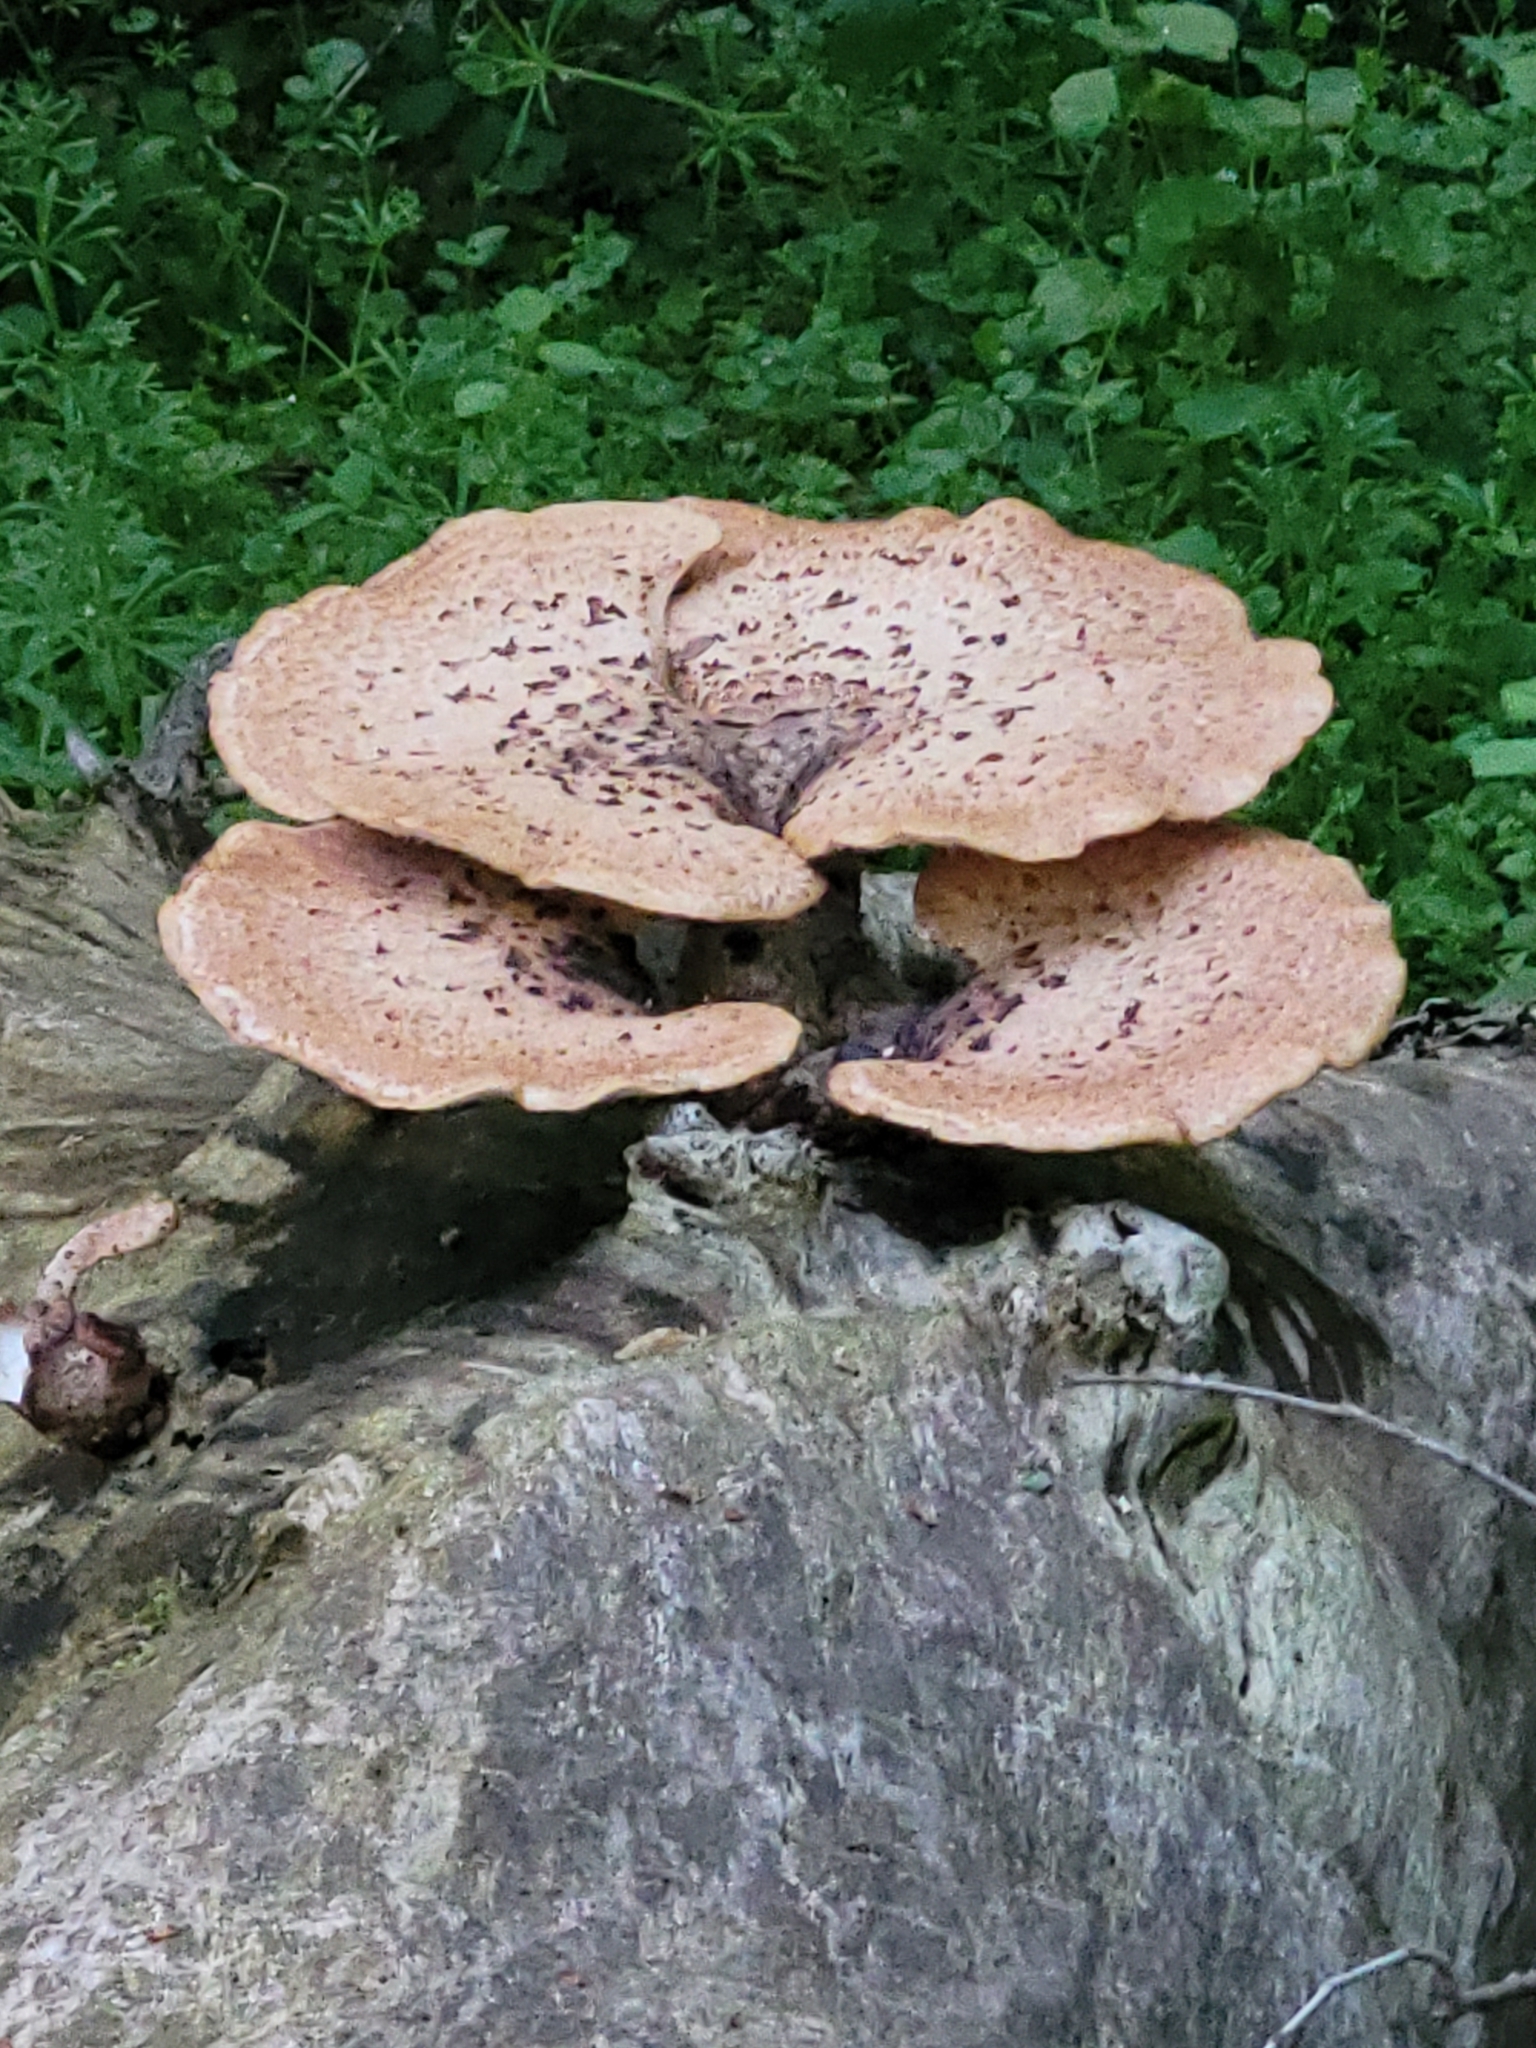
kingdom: Fungi
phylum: Basidiomycota
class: Agaricomycetes
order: Polyporales
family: Polyporaceae
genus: Cerioporus
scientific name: Cerioporus squamosus
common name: Dryad's saddle
